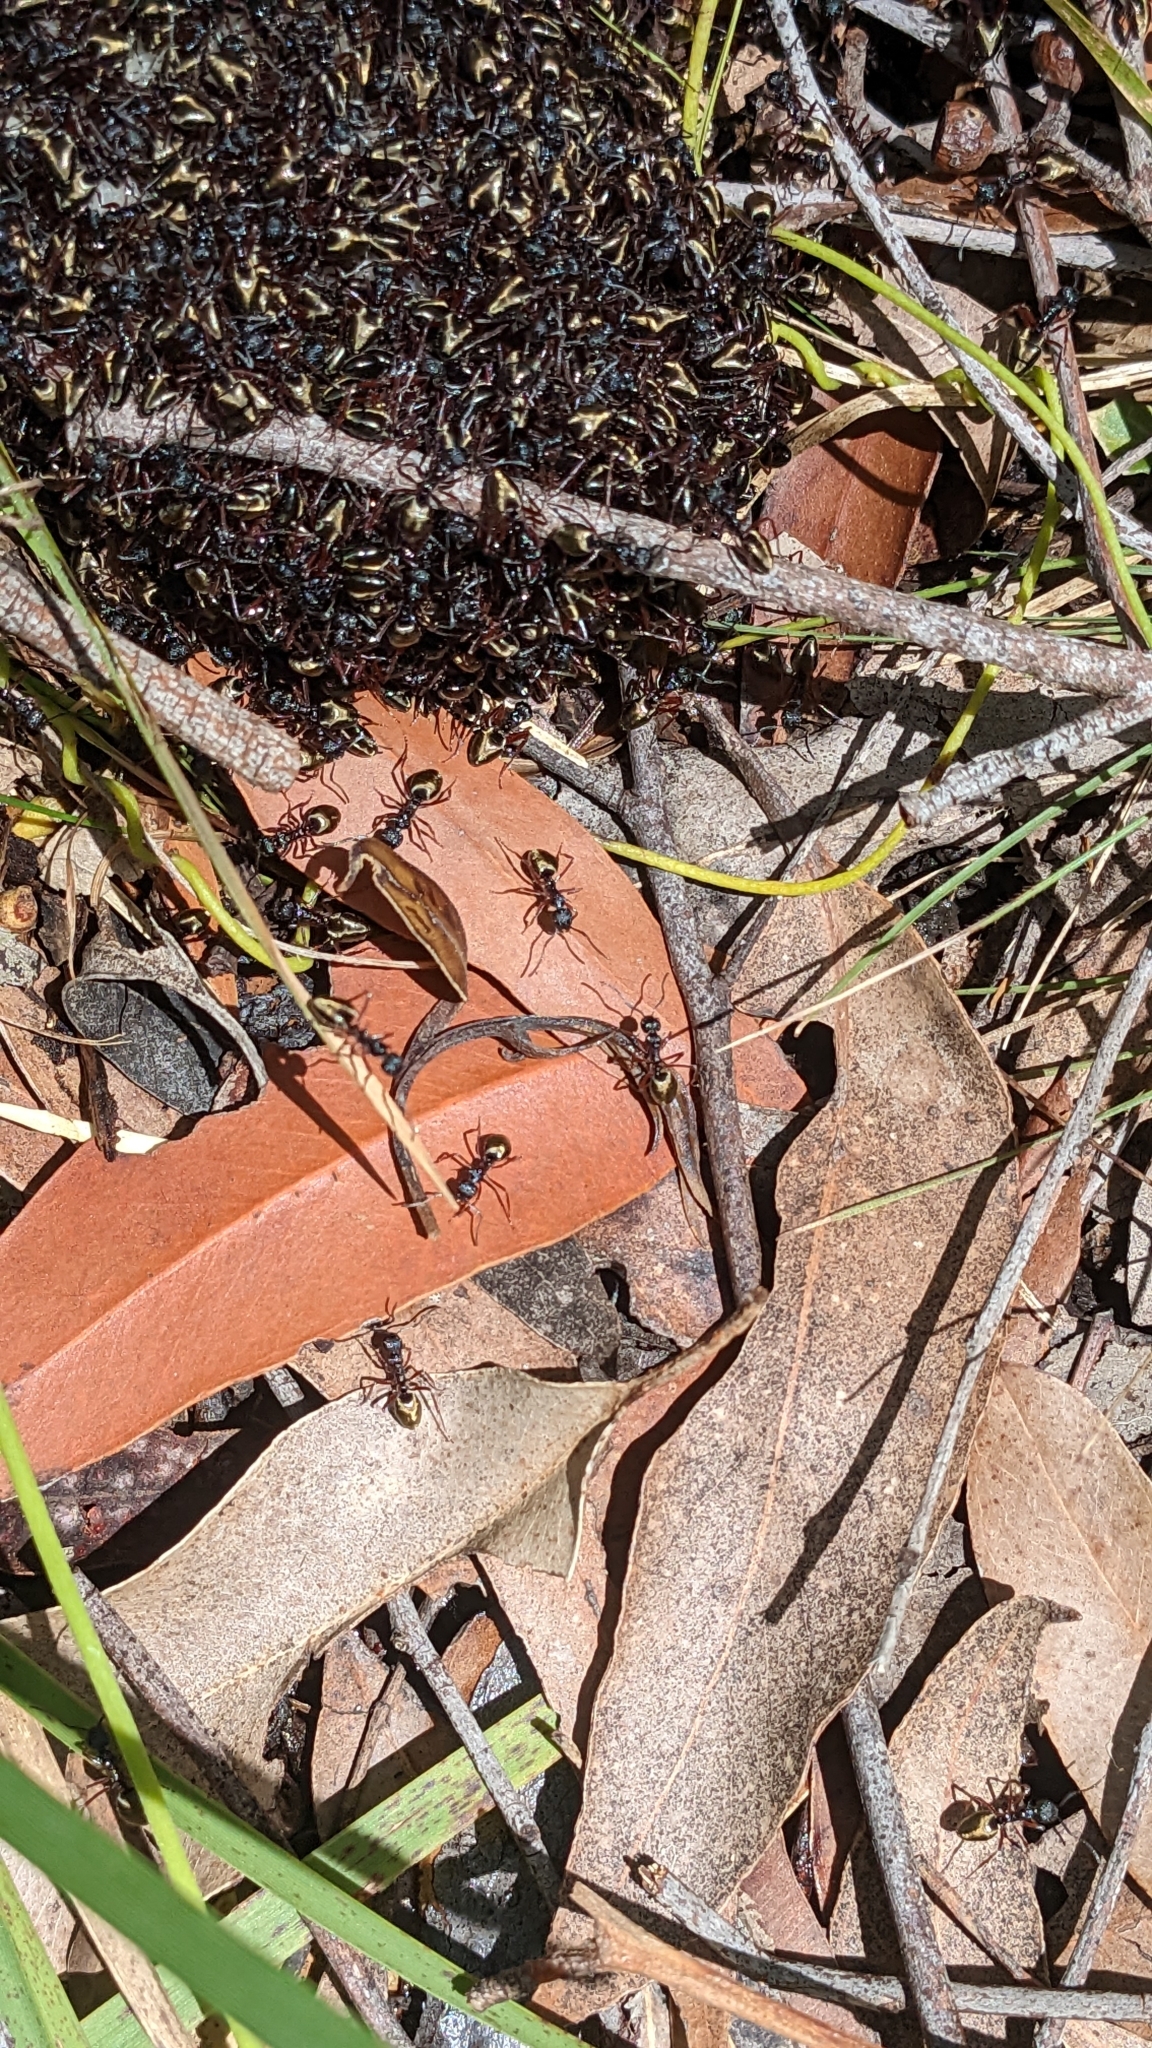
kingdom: Animalia
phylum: Arthropoda
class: Insecta
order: Hymenoptera
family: Formicidae
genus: Dolichoderus
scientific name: Dolichoderus doriae
